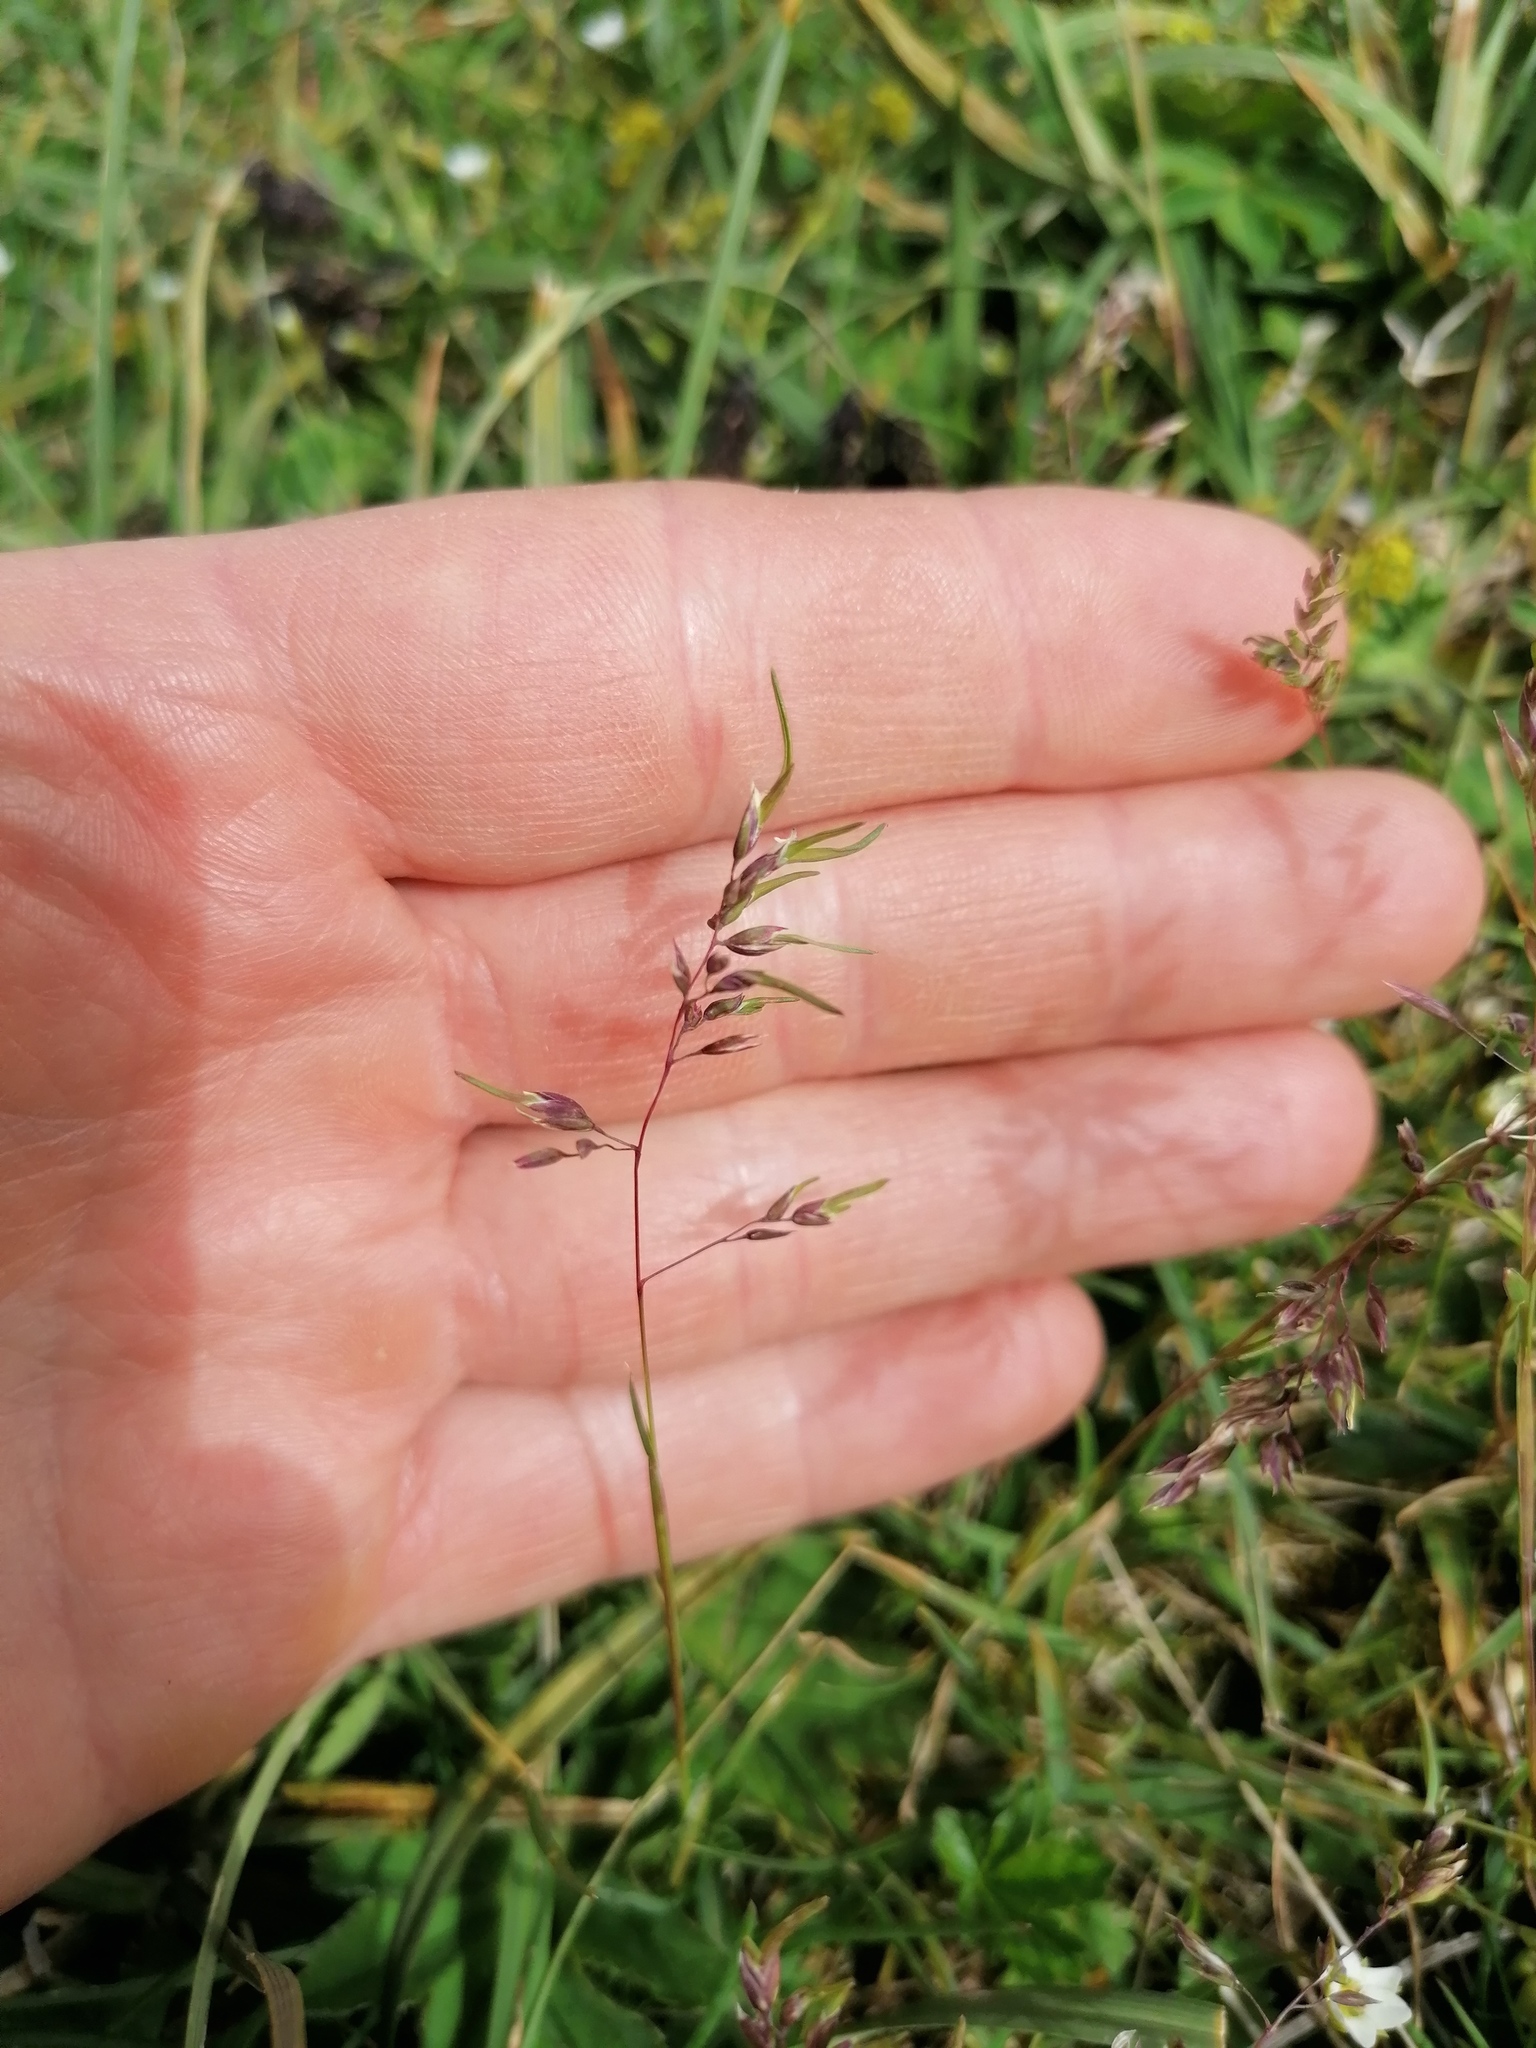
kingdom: Plantae
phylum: Tracheophyta
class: Liliopsida
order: Poales
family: Poaceae
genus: Poa
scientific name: Poa alpina
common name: Alpine bluegrass
